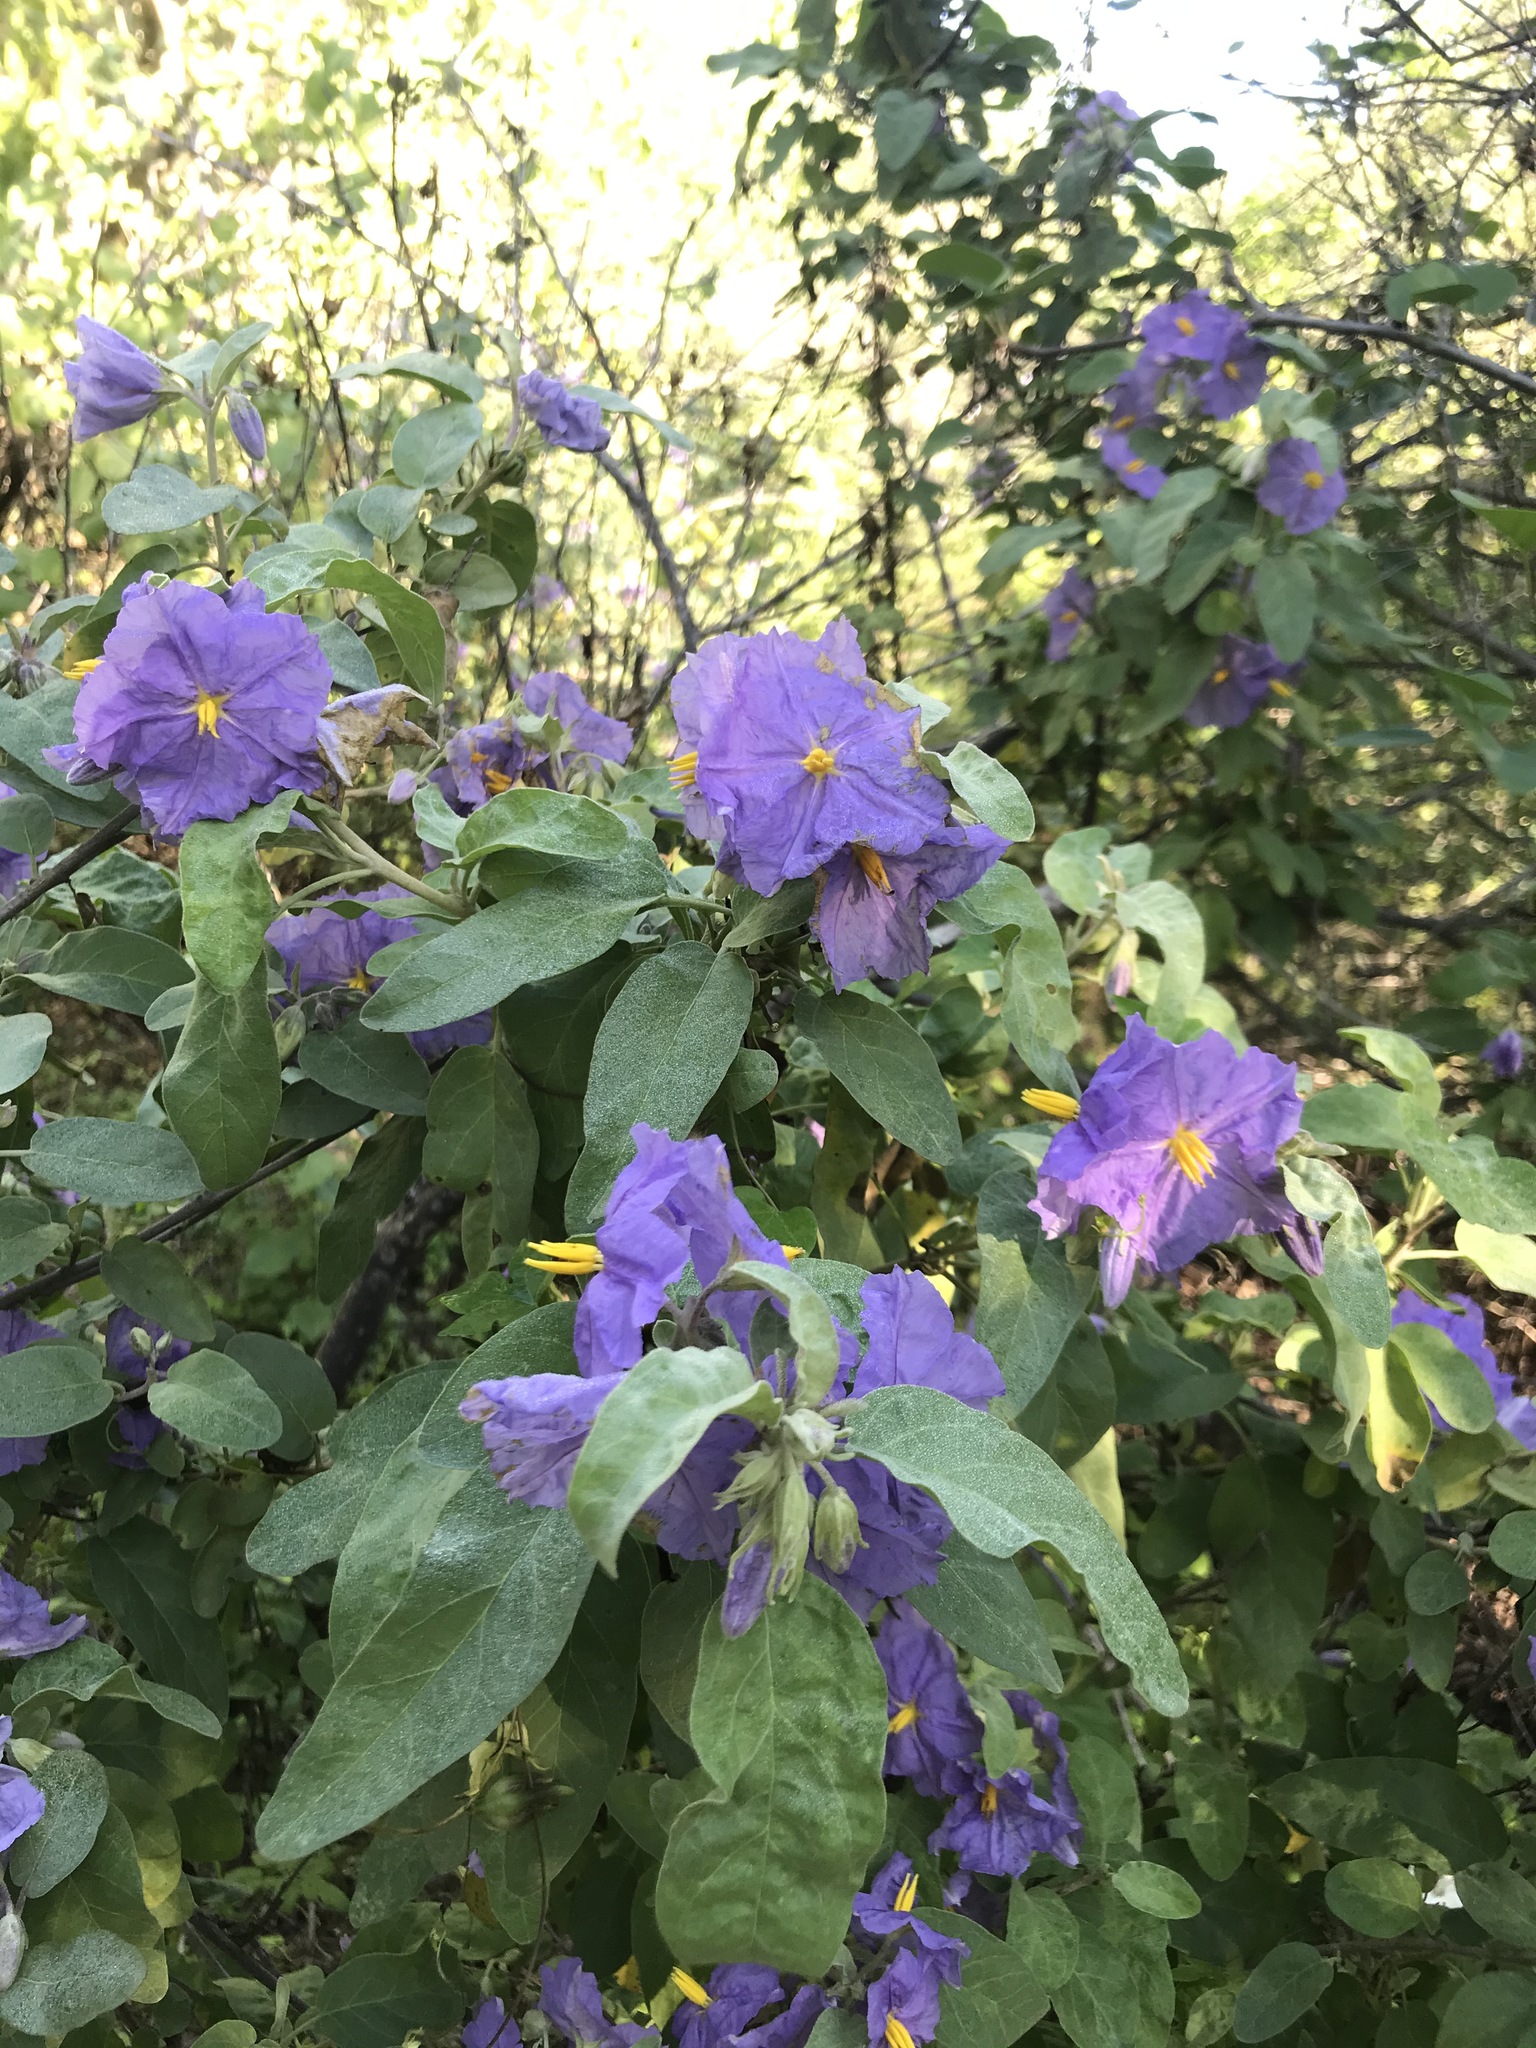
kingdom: Plantae
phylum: Tracheophyta
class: Magnoliopsida
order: Solanales
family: Solanaceae
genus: Solanum
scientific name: Solanum hindsianum
